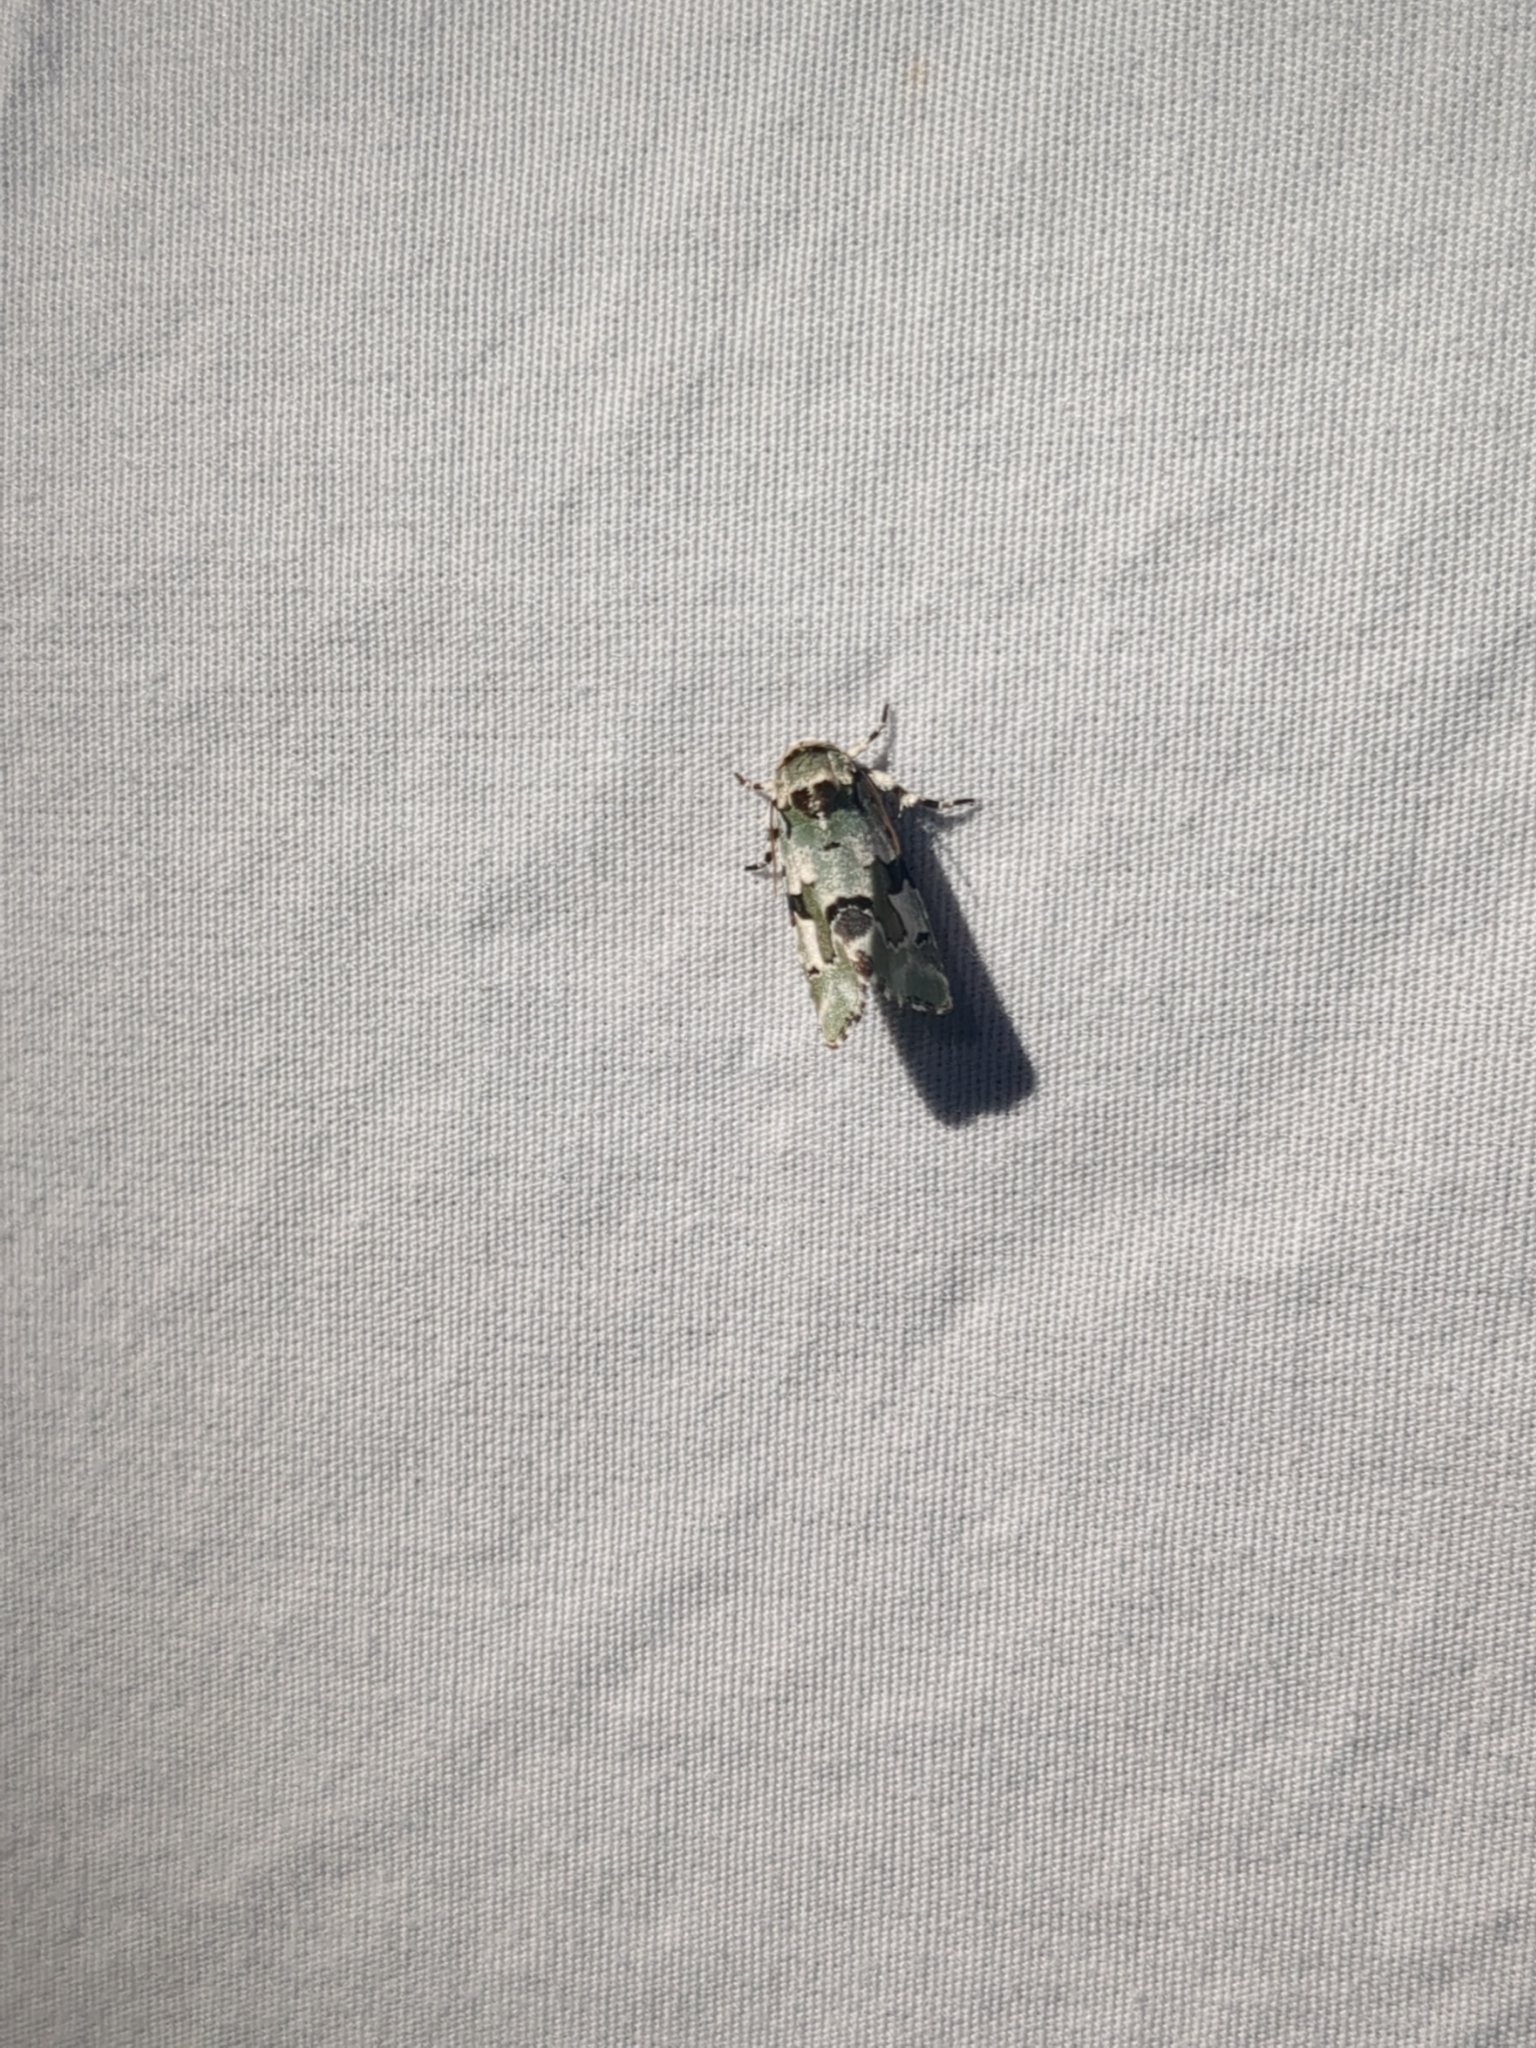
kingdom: Animalia
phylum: Arthropoda
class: Insecta
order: Lepidoptera
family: Noctuidae
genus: Emarginea
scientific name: Emarginea percara
